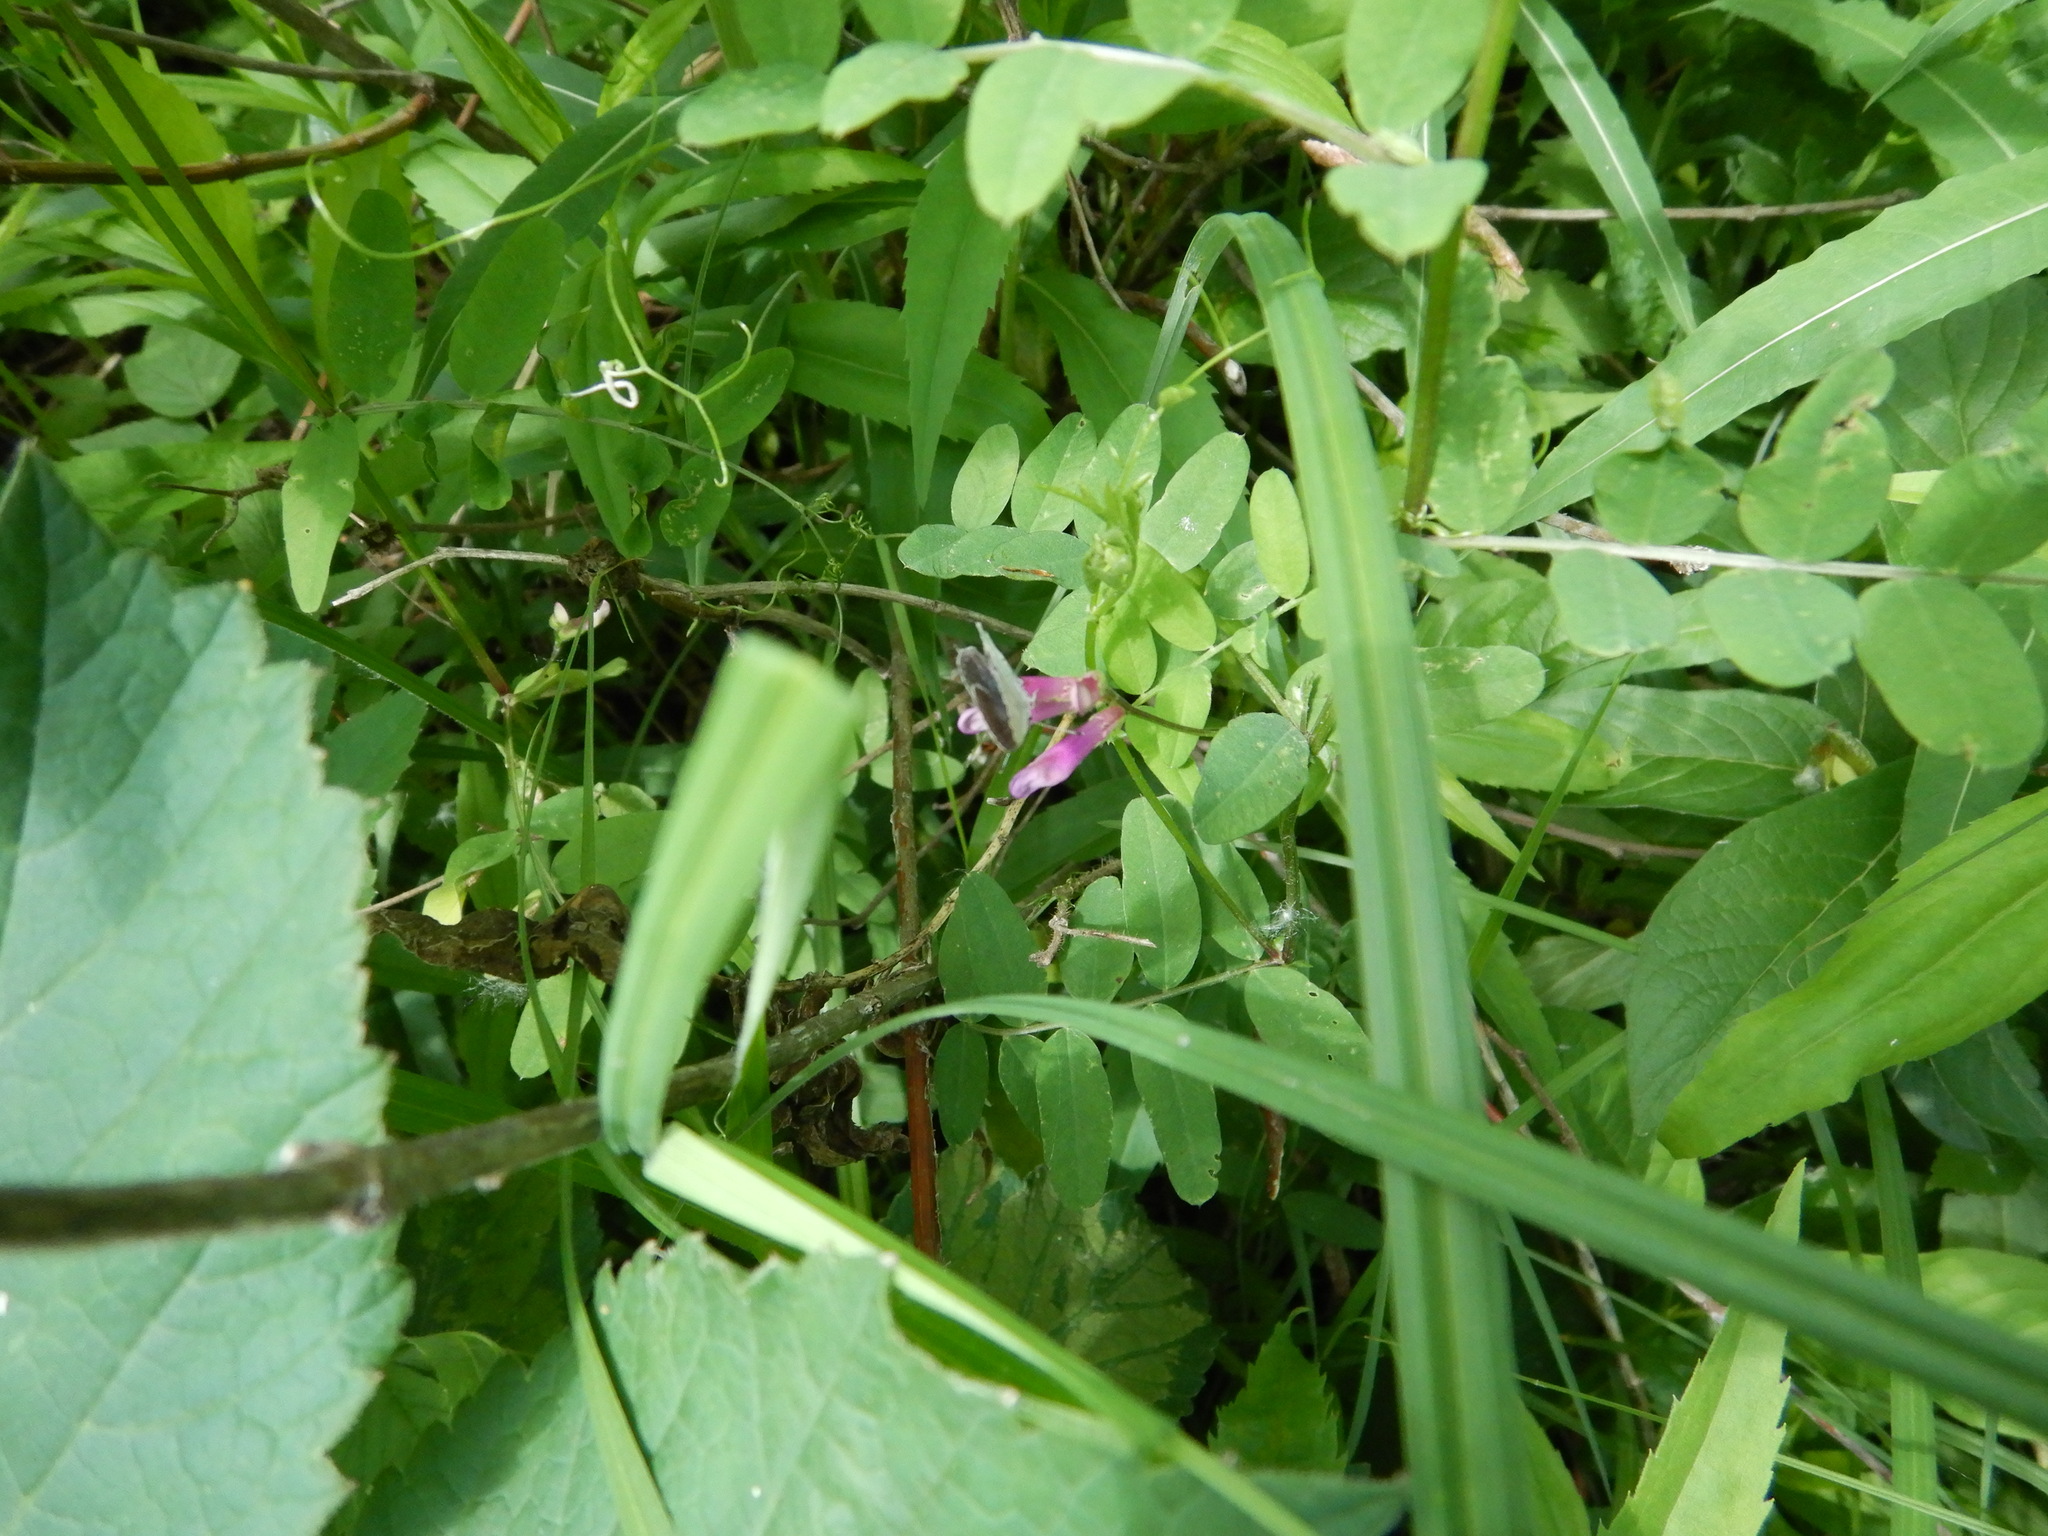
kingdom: Animalia
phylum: Arthropoda
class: Insecta
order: Lepidoptera
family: Lycaenidae
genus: Elkalyce
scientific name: Elkalyce amyntula
